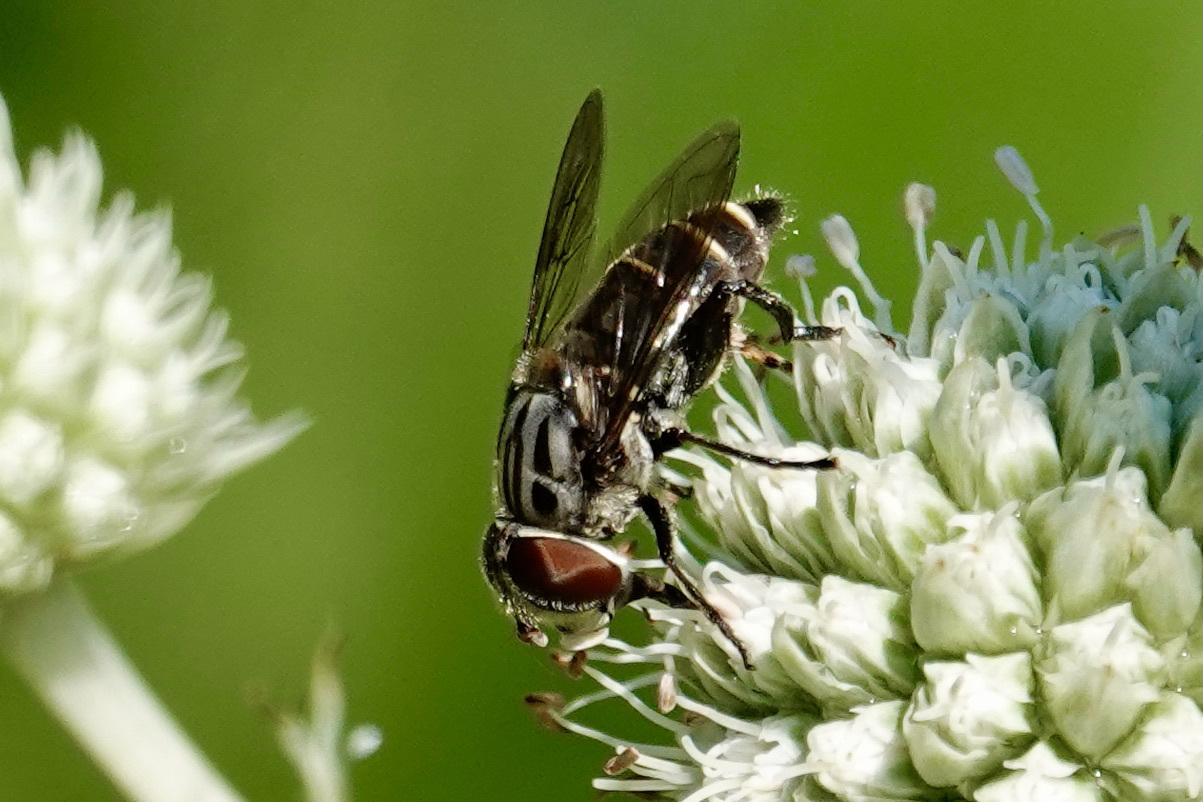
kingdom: Animalia
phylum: Arthropoda
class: Insecta
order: Diptera
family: Syrphidae
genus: Palpada
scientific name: Palpada furcata
